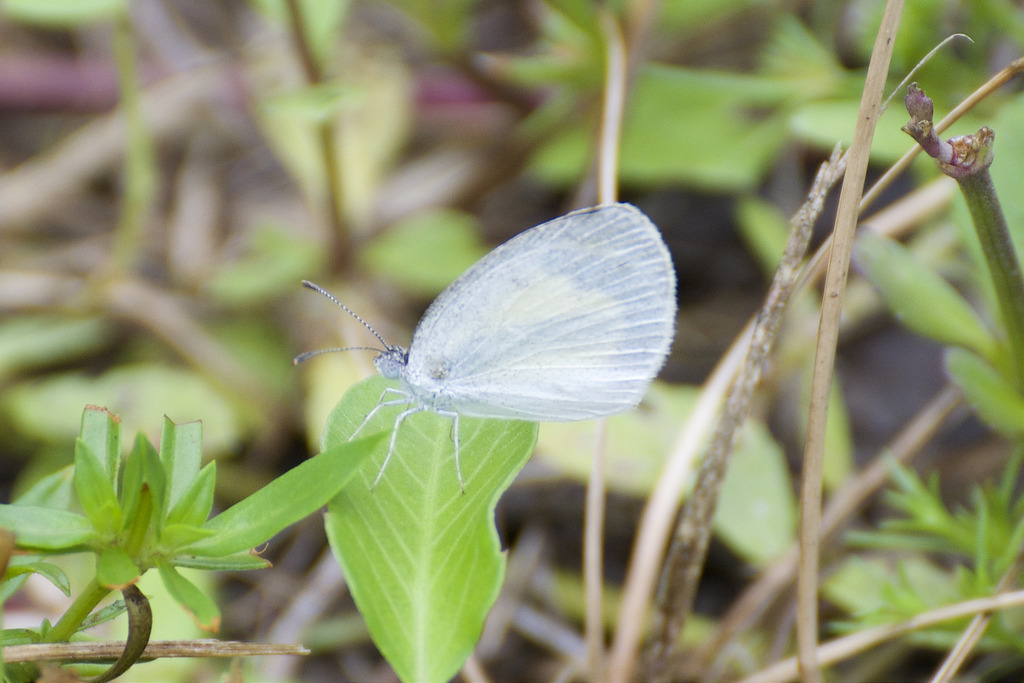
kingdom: Animalia
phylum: Arthropoda
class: Insecta
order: Lepidoptera
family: Pieridae
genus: Eurema
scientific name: Eurema daira
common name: Barred sulphur
